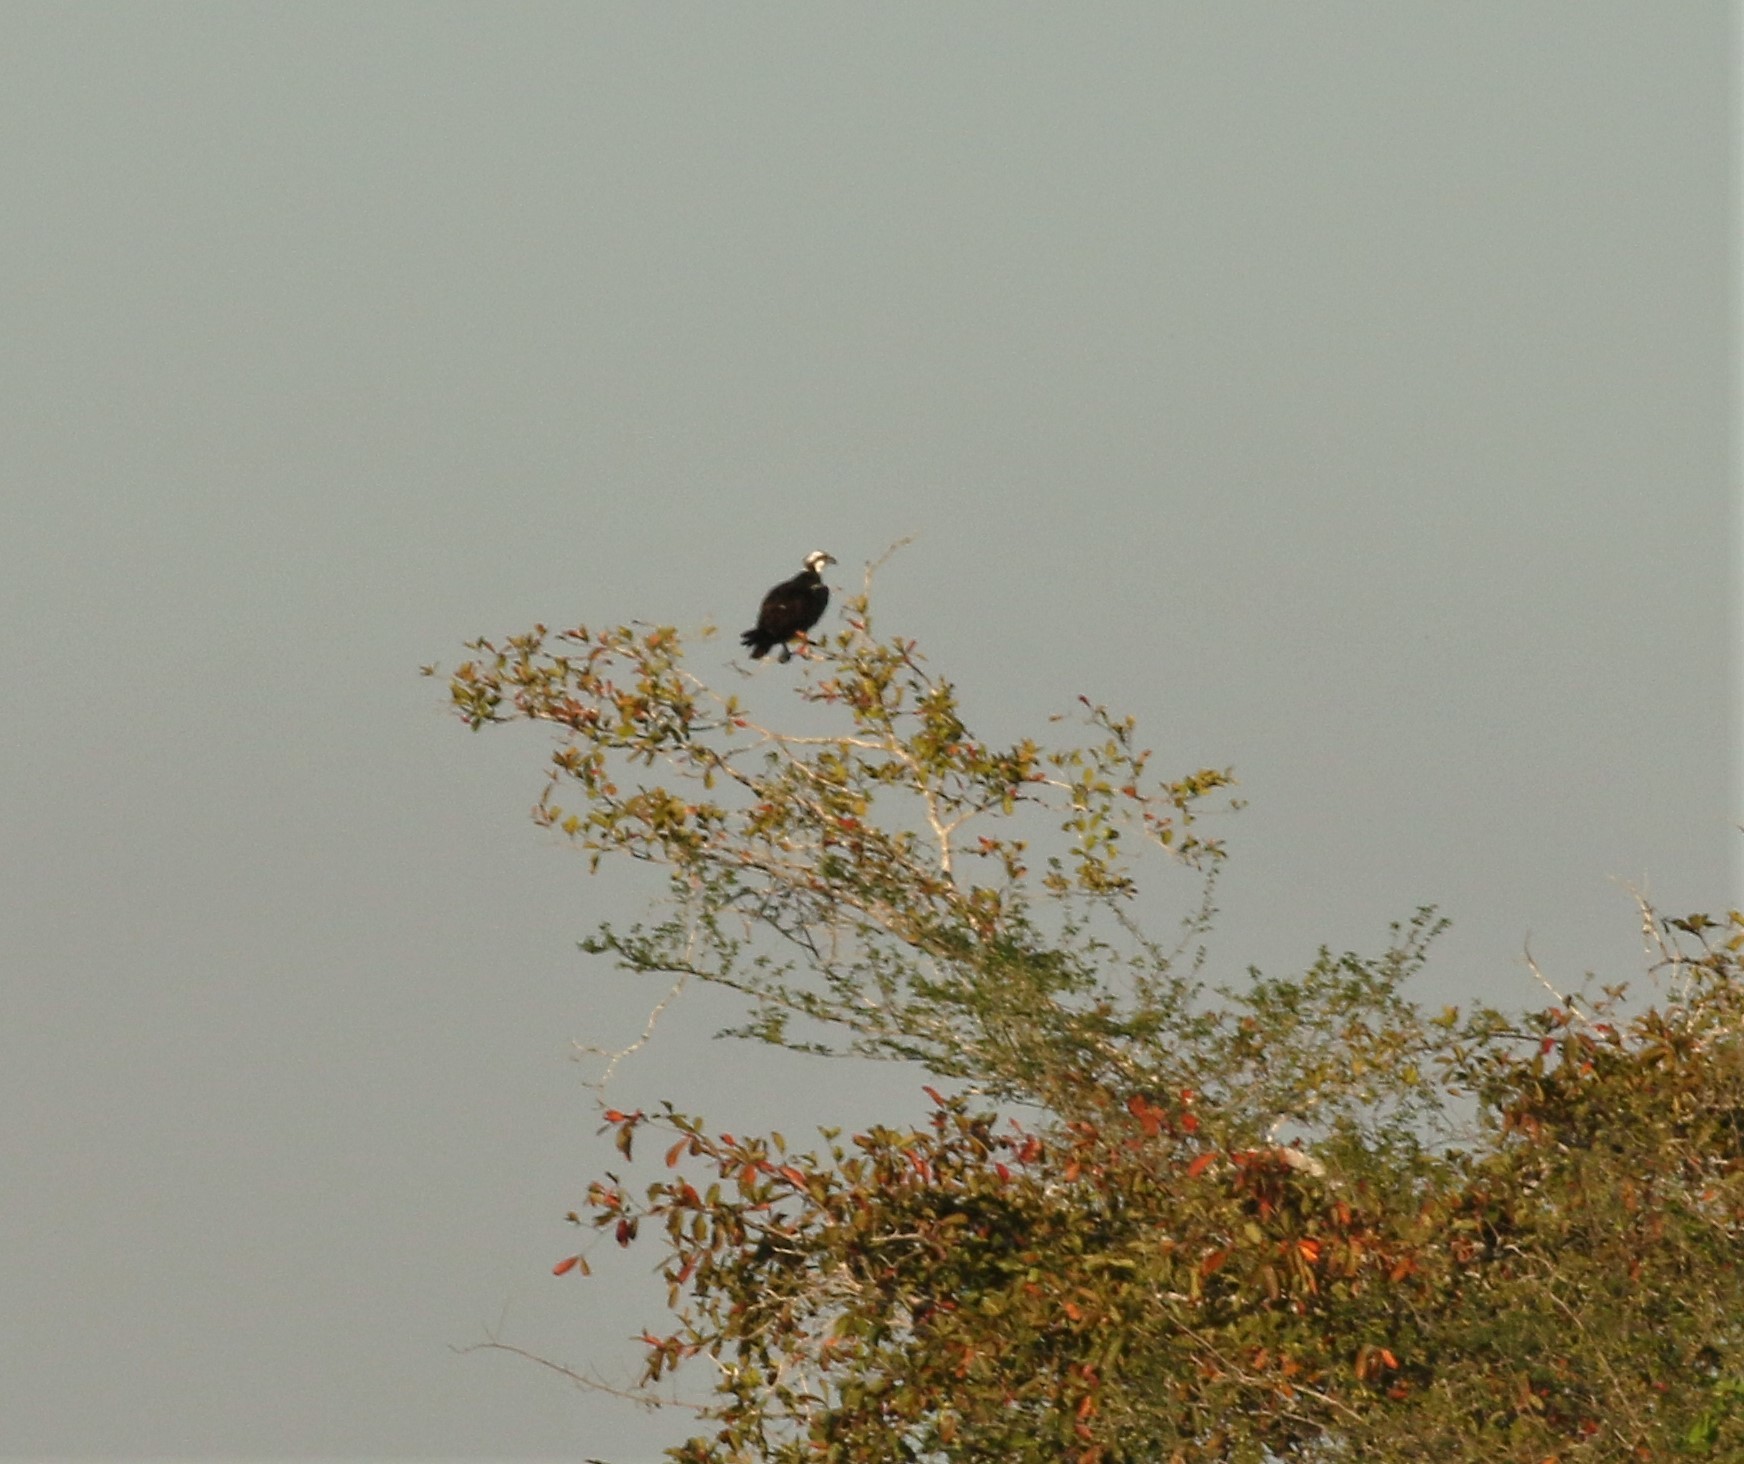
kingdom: Animalia
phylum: Chordata
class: Aves
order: Accipitriformes
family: Pandionidae
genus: Pandion
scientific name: Pandion haliaetus
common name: Osprey
